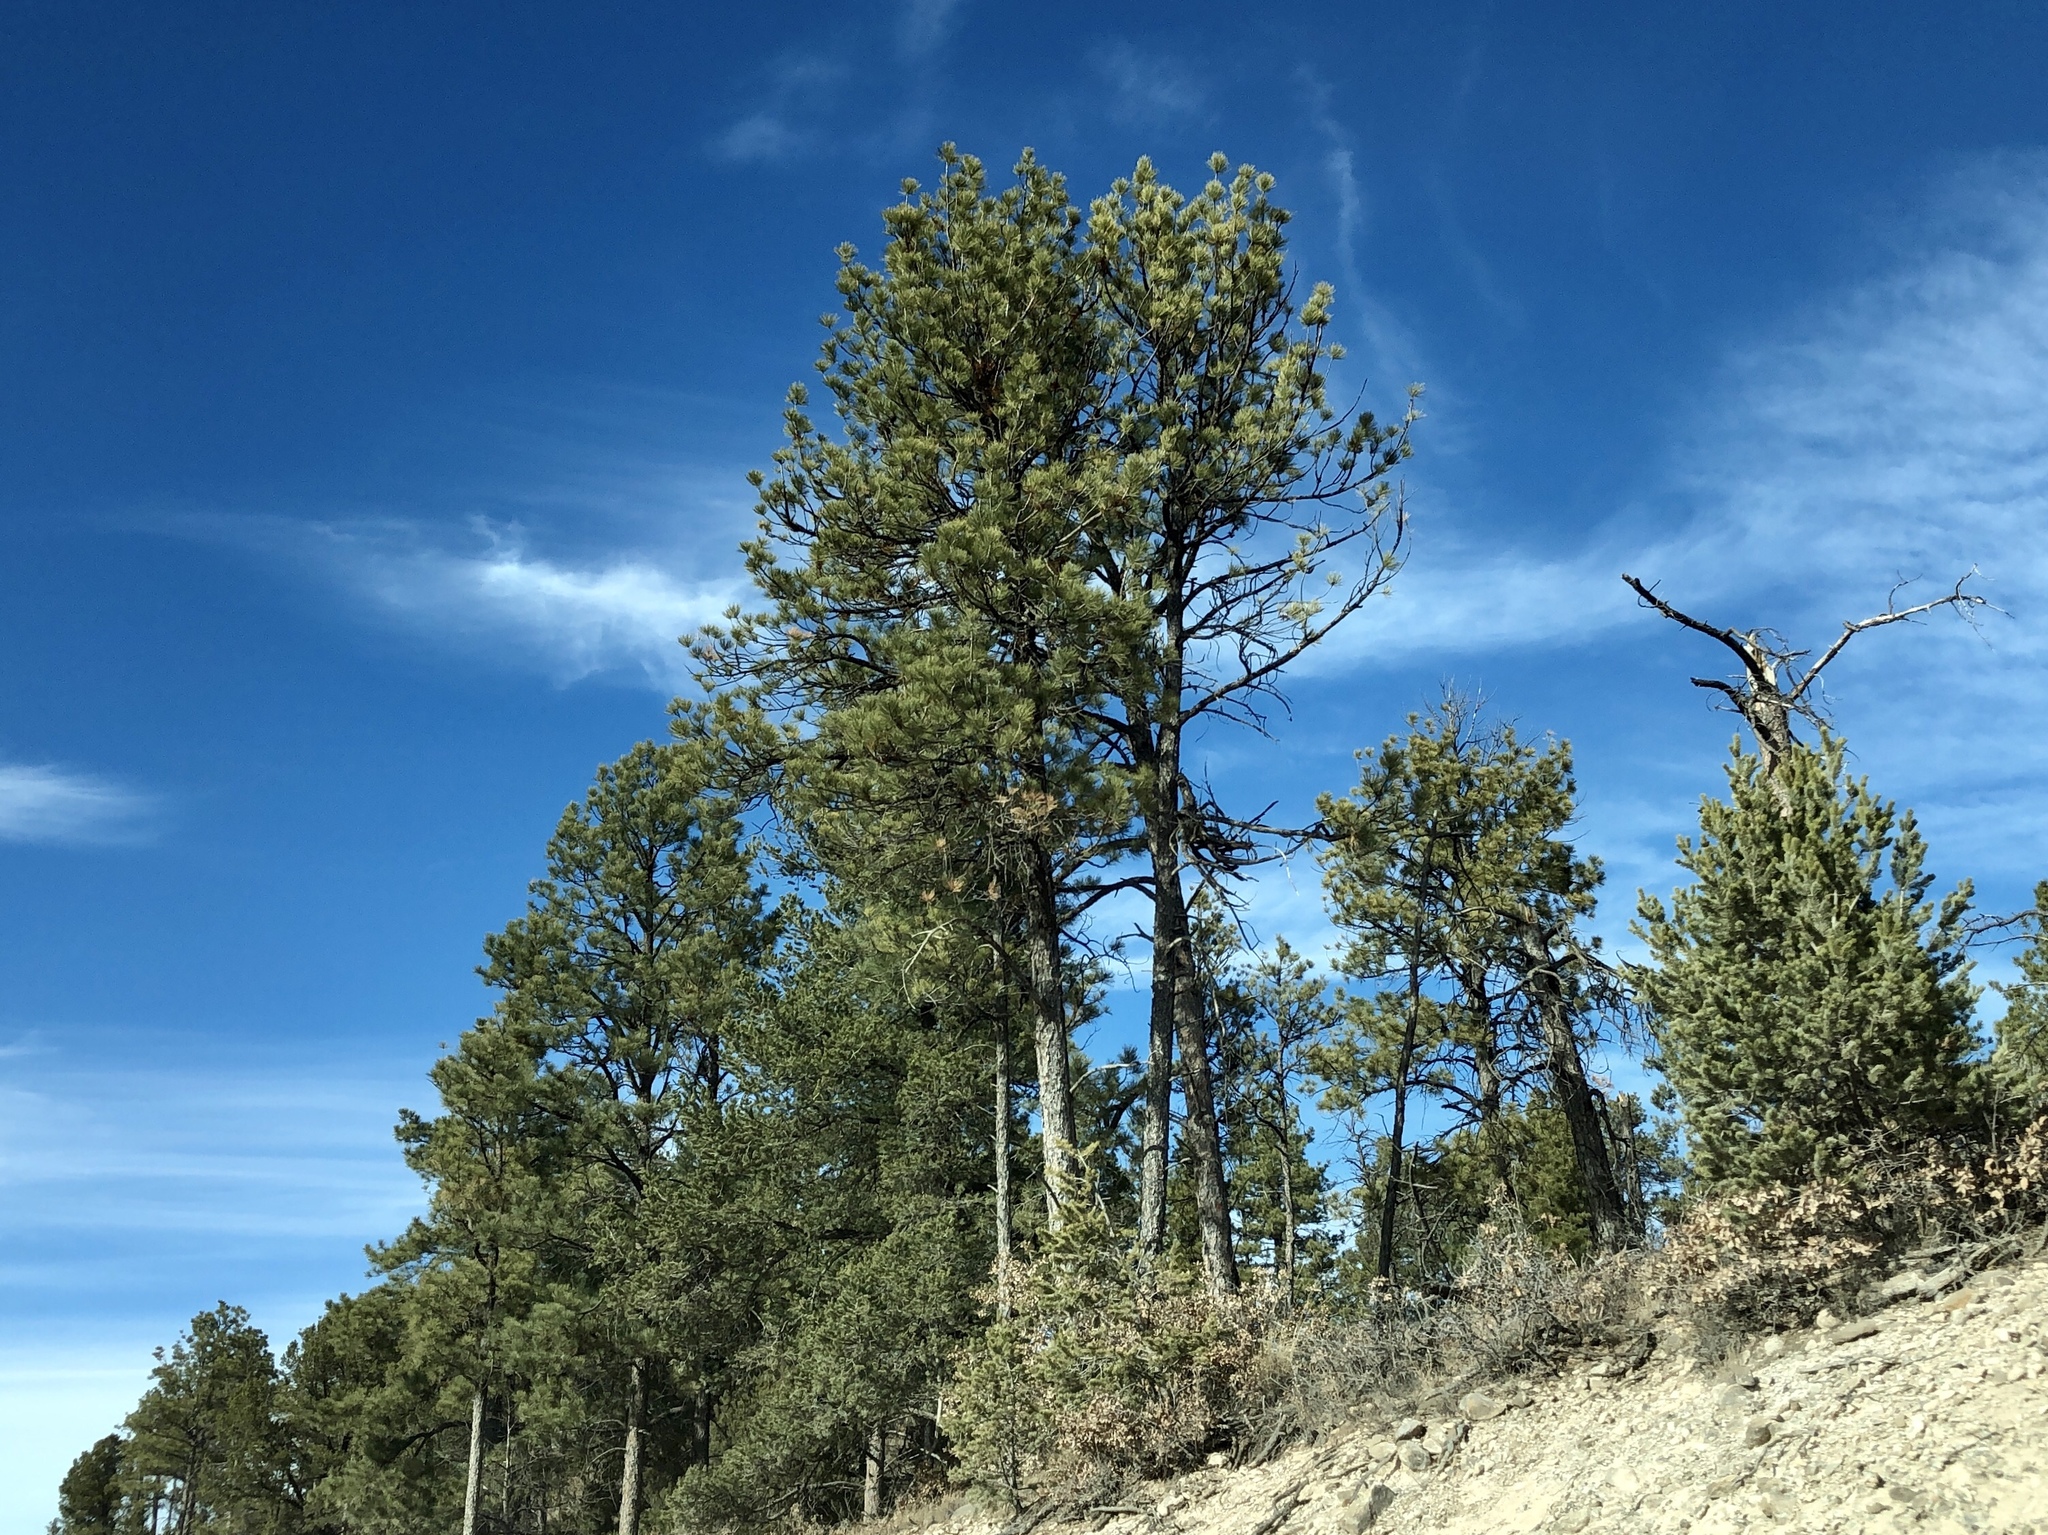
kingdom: Plantae
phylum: Tracheophyta
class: Pinopsida
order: Pinales
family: Pinaceae
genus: Pinus
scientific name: Pinus ponderosa
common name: Western yellow-pine
